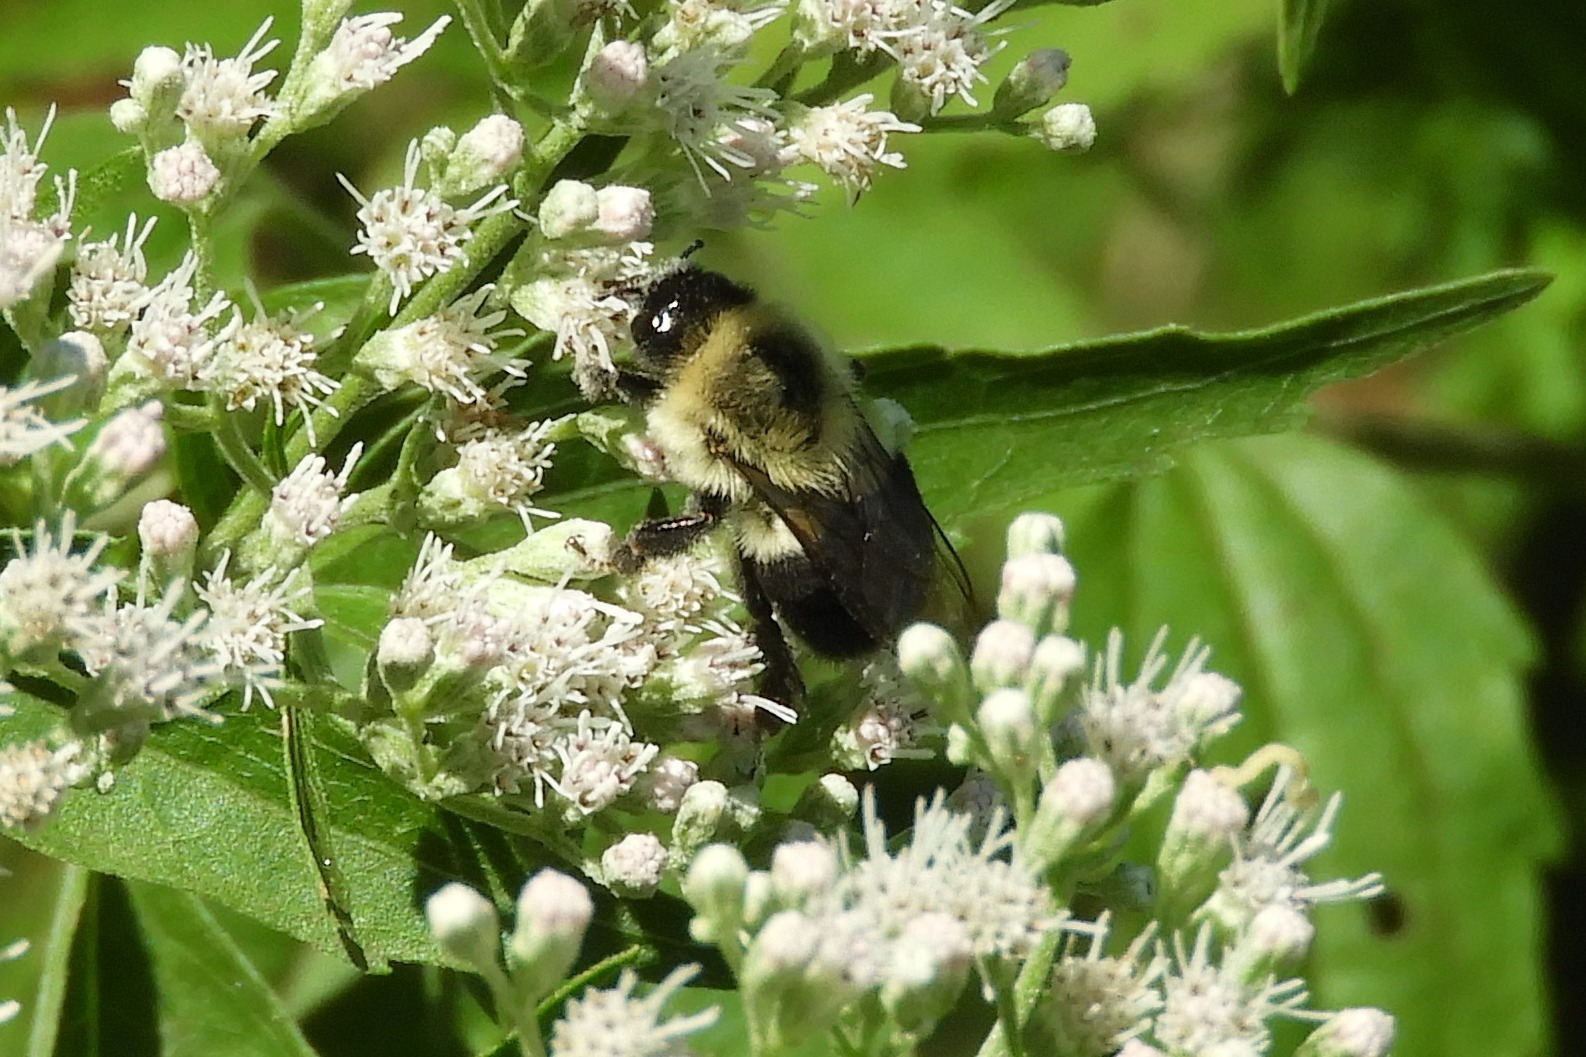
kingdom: Animalia
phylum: Arthropoda
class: Insecta
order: Hymenoptera
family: Apidae
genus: Bombus
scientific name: Bombus impatiens
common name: Common eastern bumble bee
